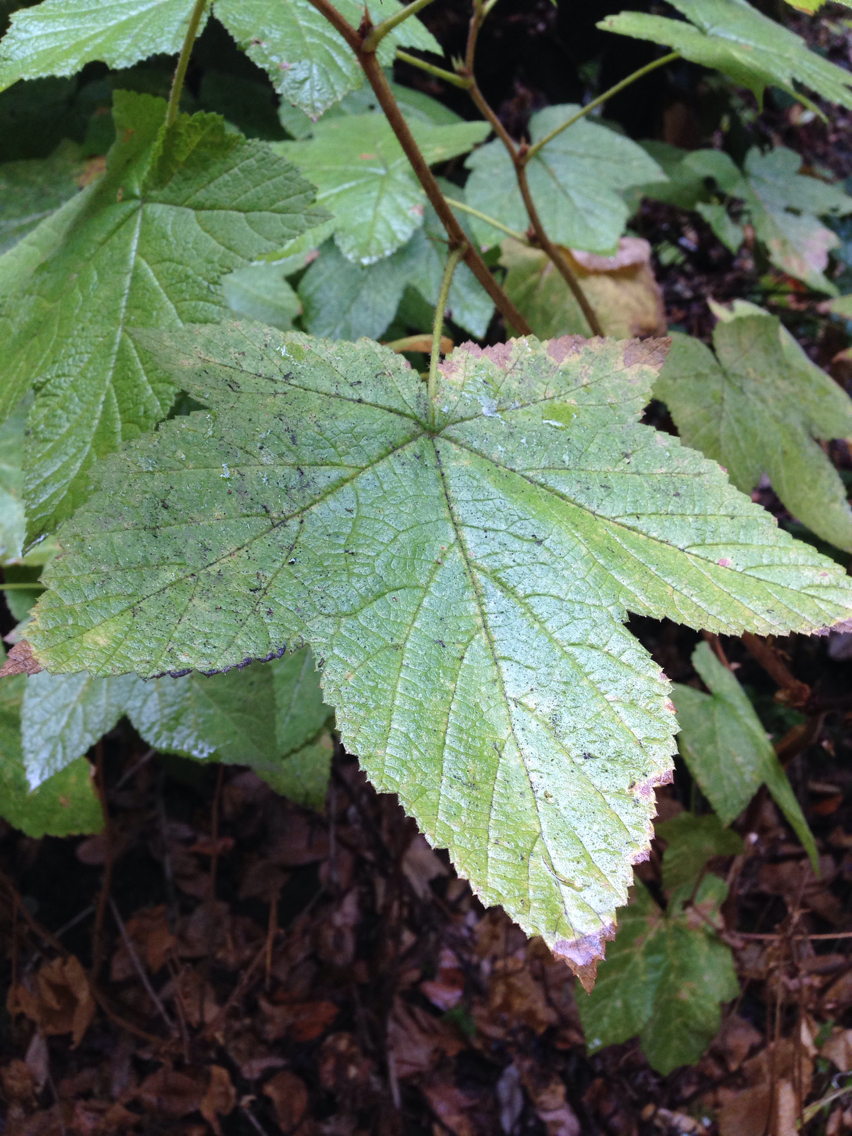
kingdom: Plantae
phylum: Tracheophyta
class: Magnoliopsida
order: Rosales
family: Rosaceae
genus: Rubus
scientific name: Rubus parviflorus
